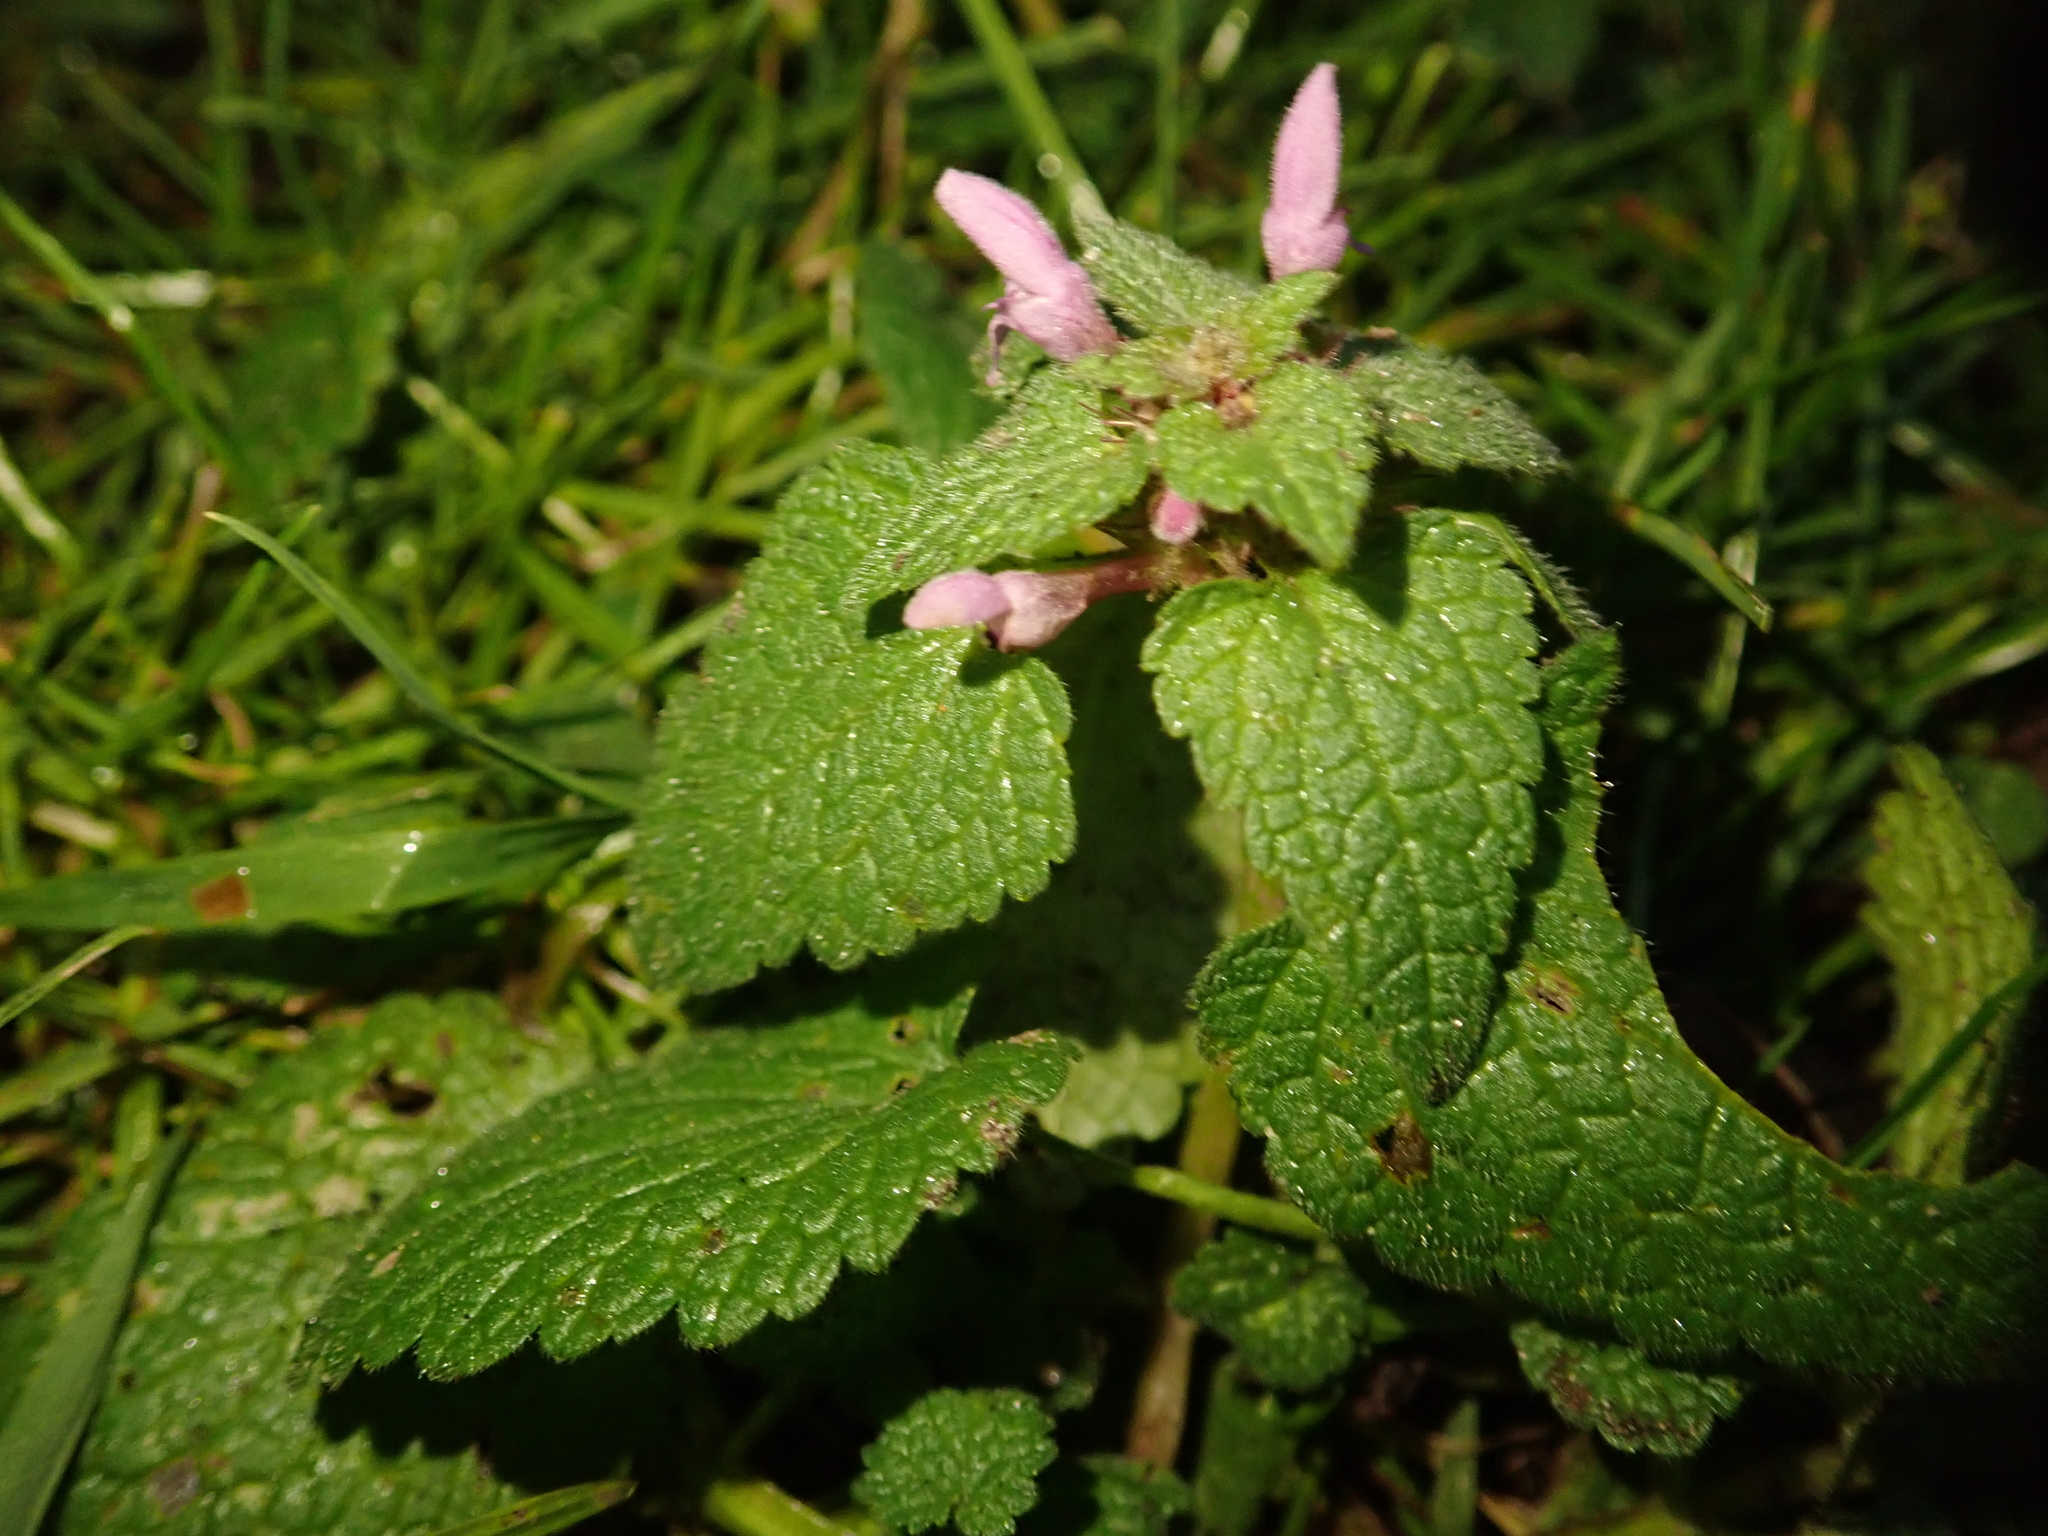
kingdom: Plantae
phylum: Tracheophyta
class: Magnoliopsida
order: Lamiales
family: Lamiaceae
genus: Lamium
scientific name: Lamium purpureum
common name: Red dead-nettle
